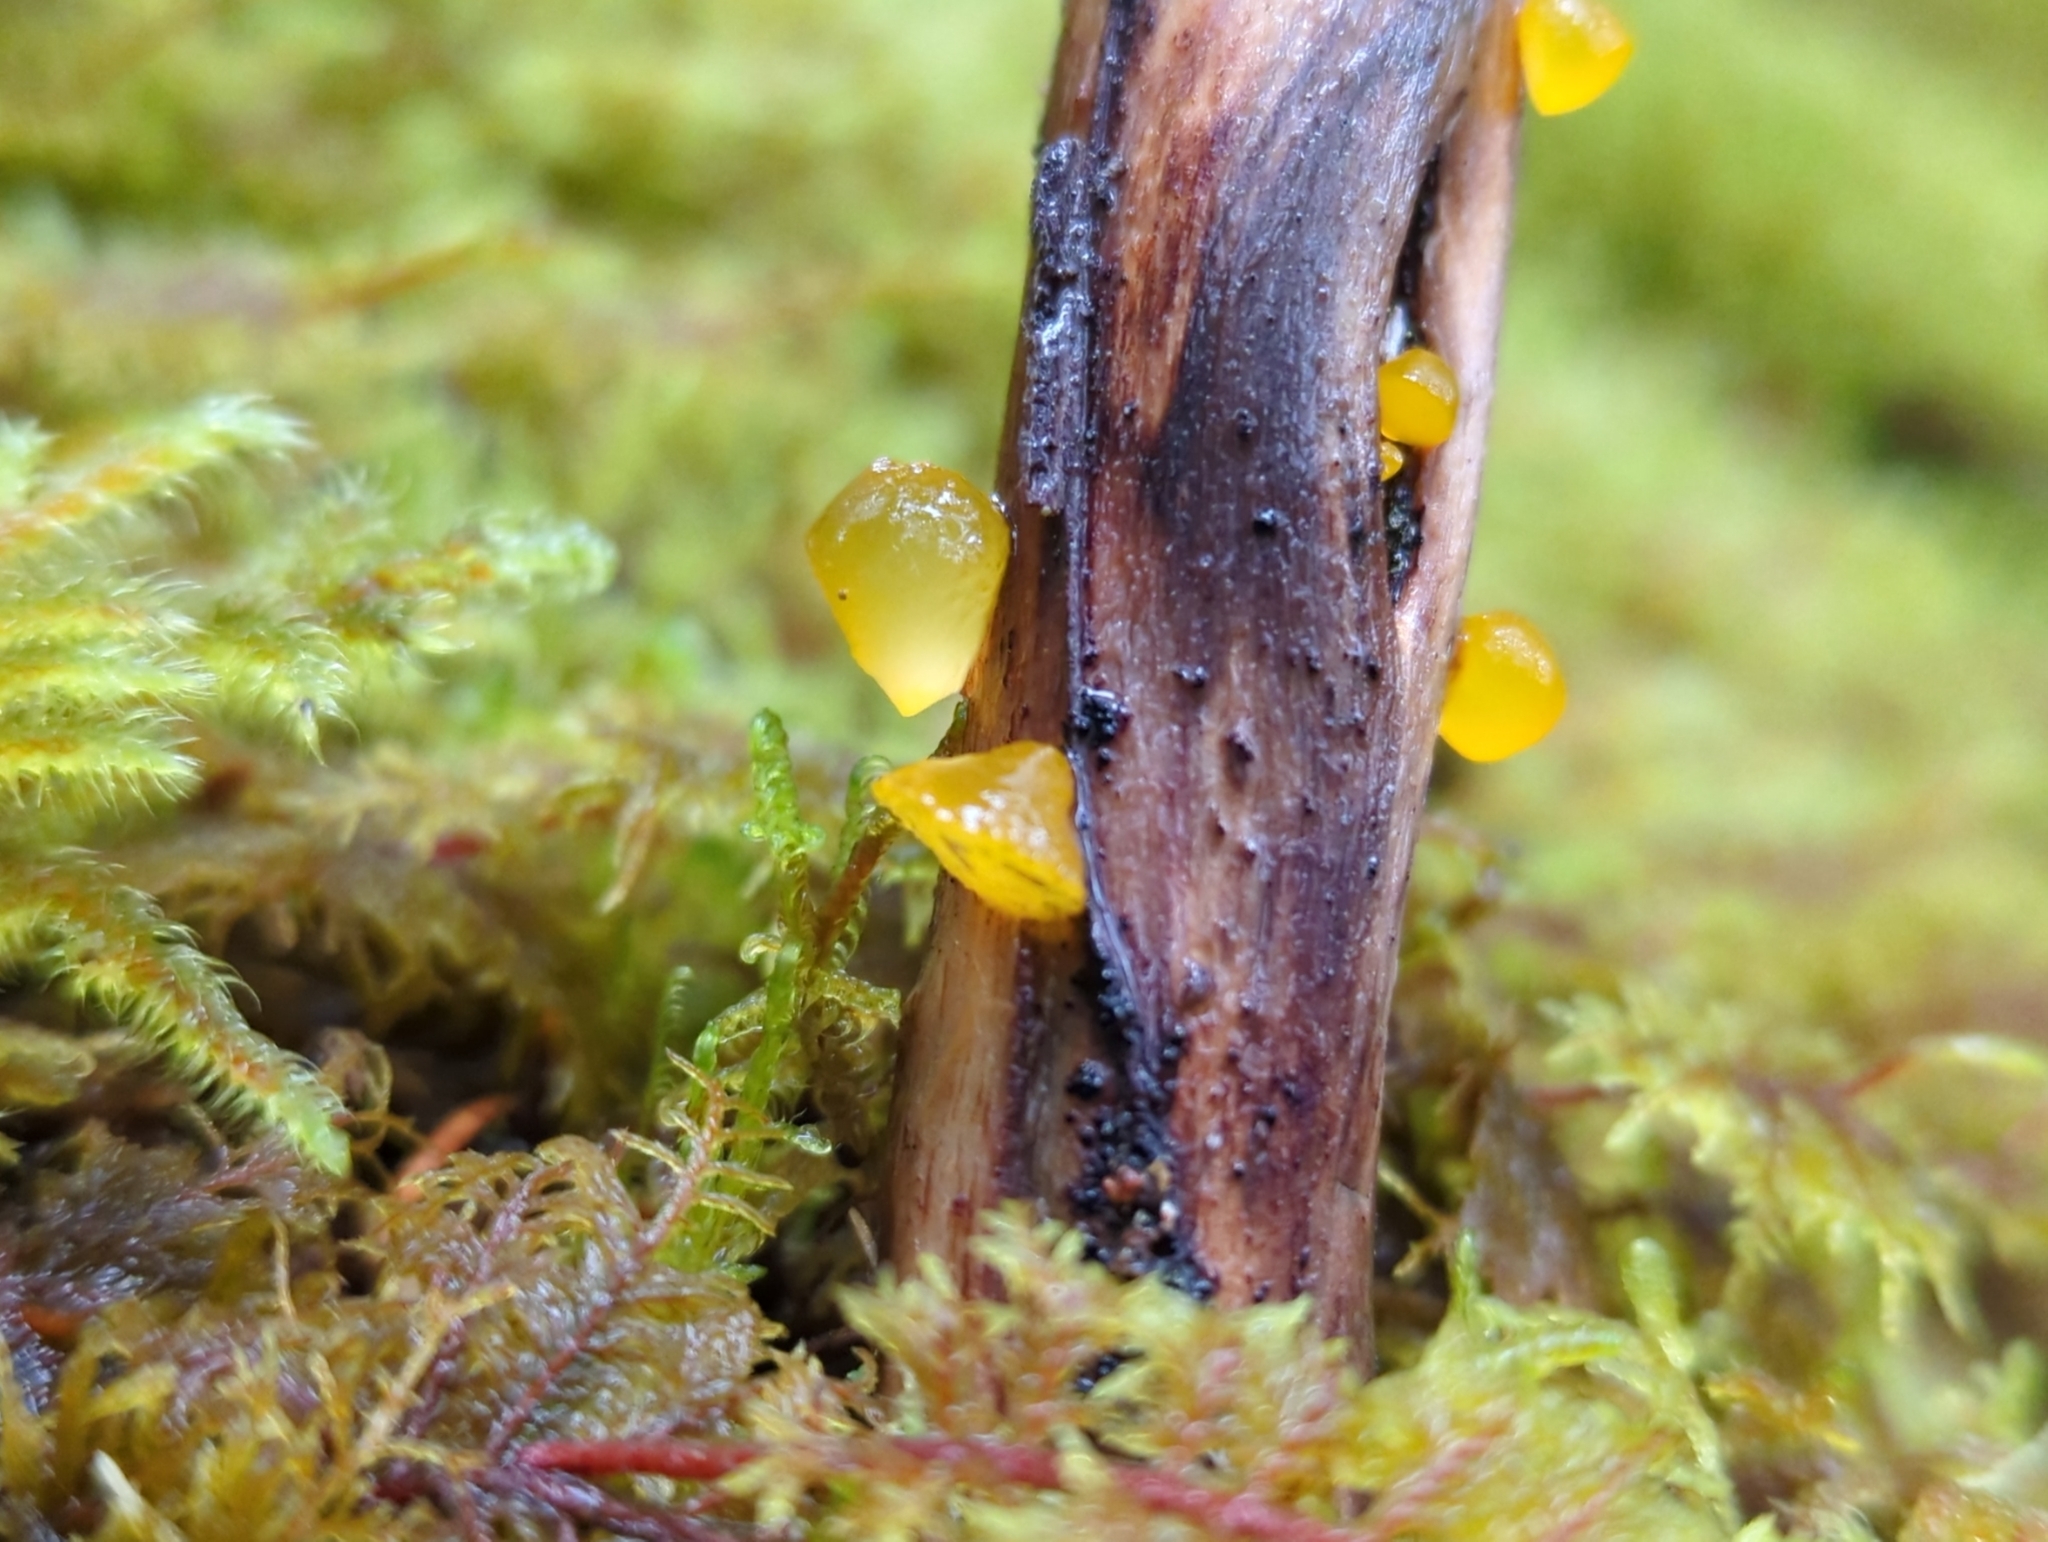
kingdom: Fungi
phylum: Basidiomycota
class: Dacrymycetes
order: Dacrymycetales
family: Dacrymycetaceae
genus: Guepiniopsis
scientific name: Guepiniopsis alpina
